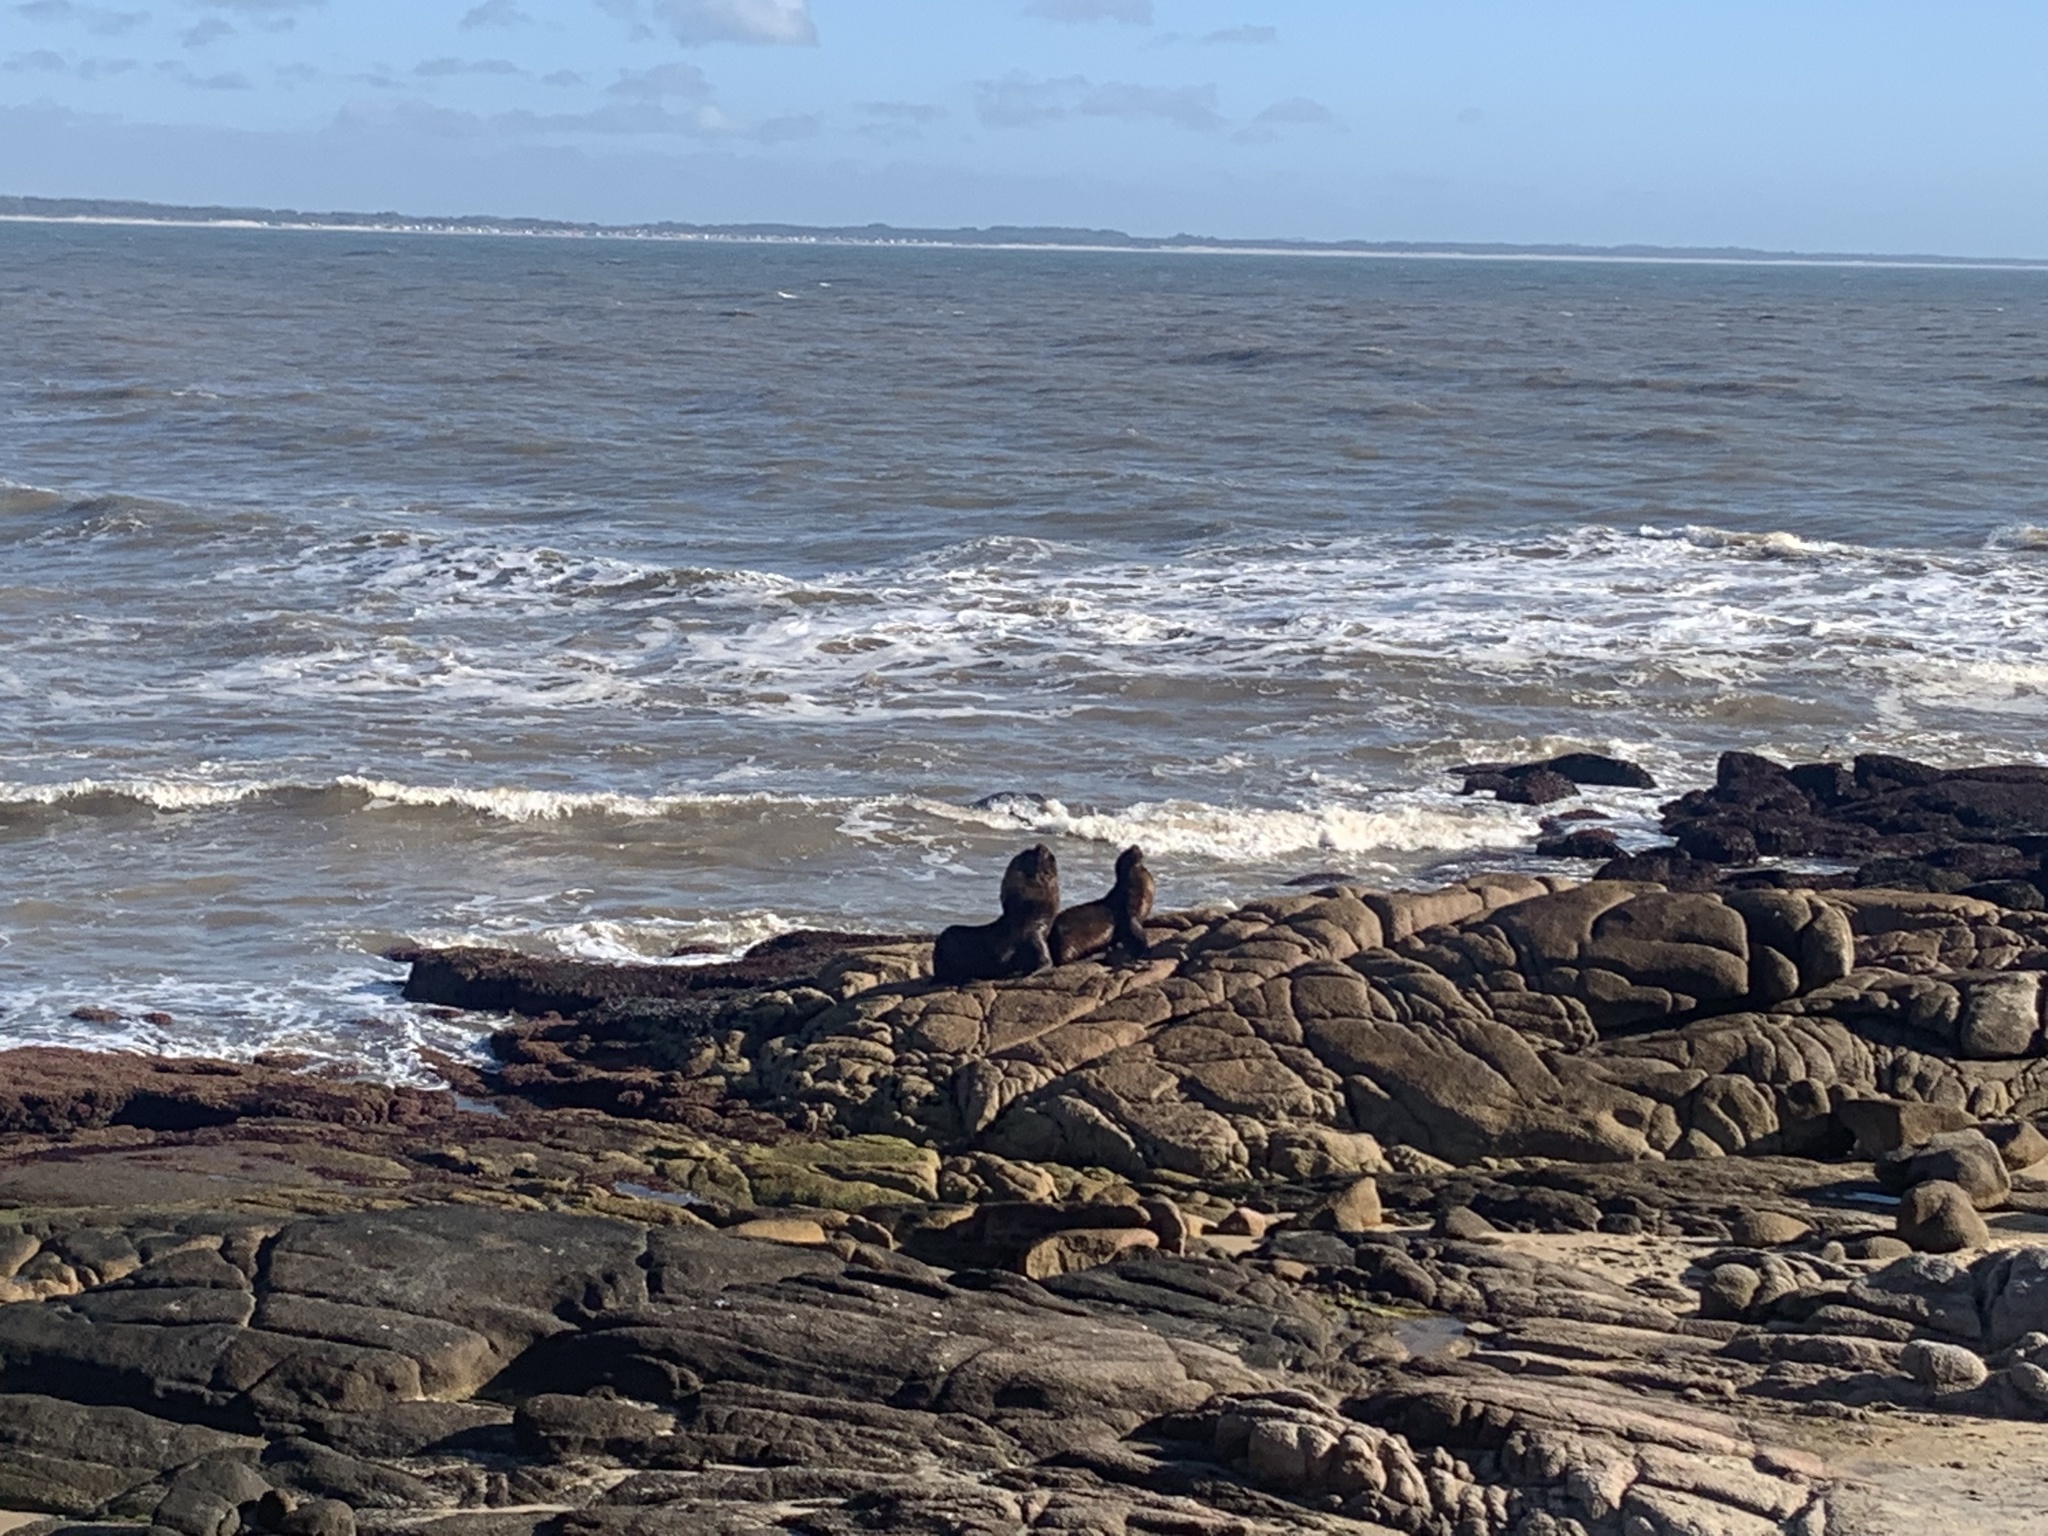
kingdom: Animalia
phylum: Chordata
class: Mammalia
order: Carnivora
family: Otariidae
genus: Otaria
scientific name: Otaria byronia
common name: South american sea lion
